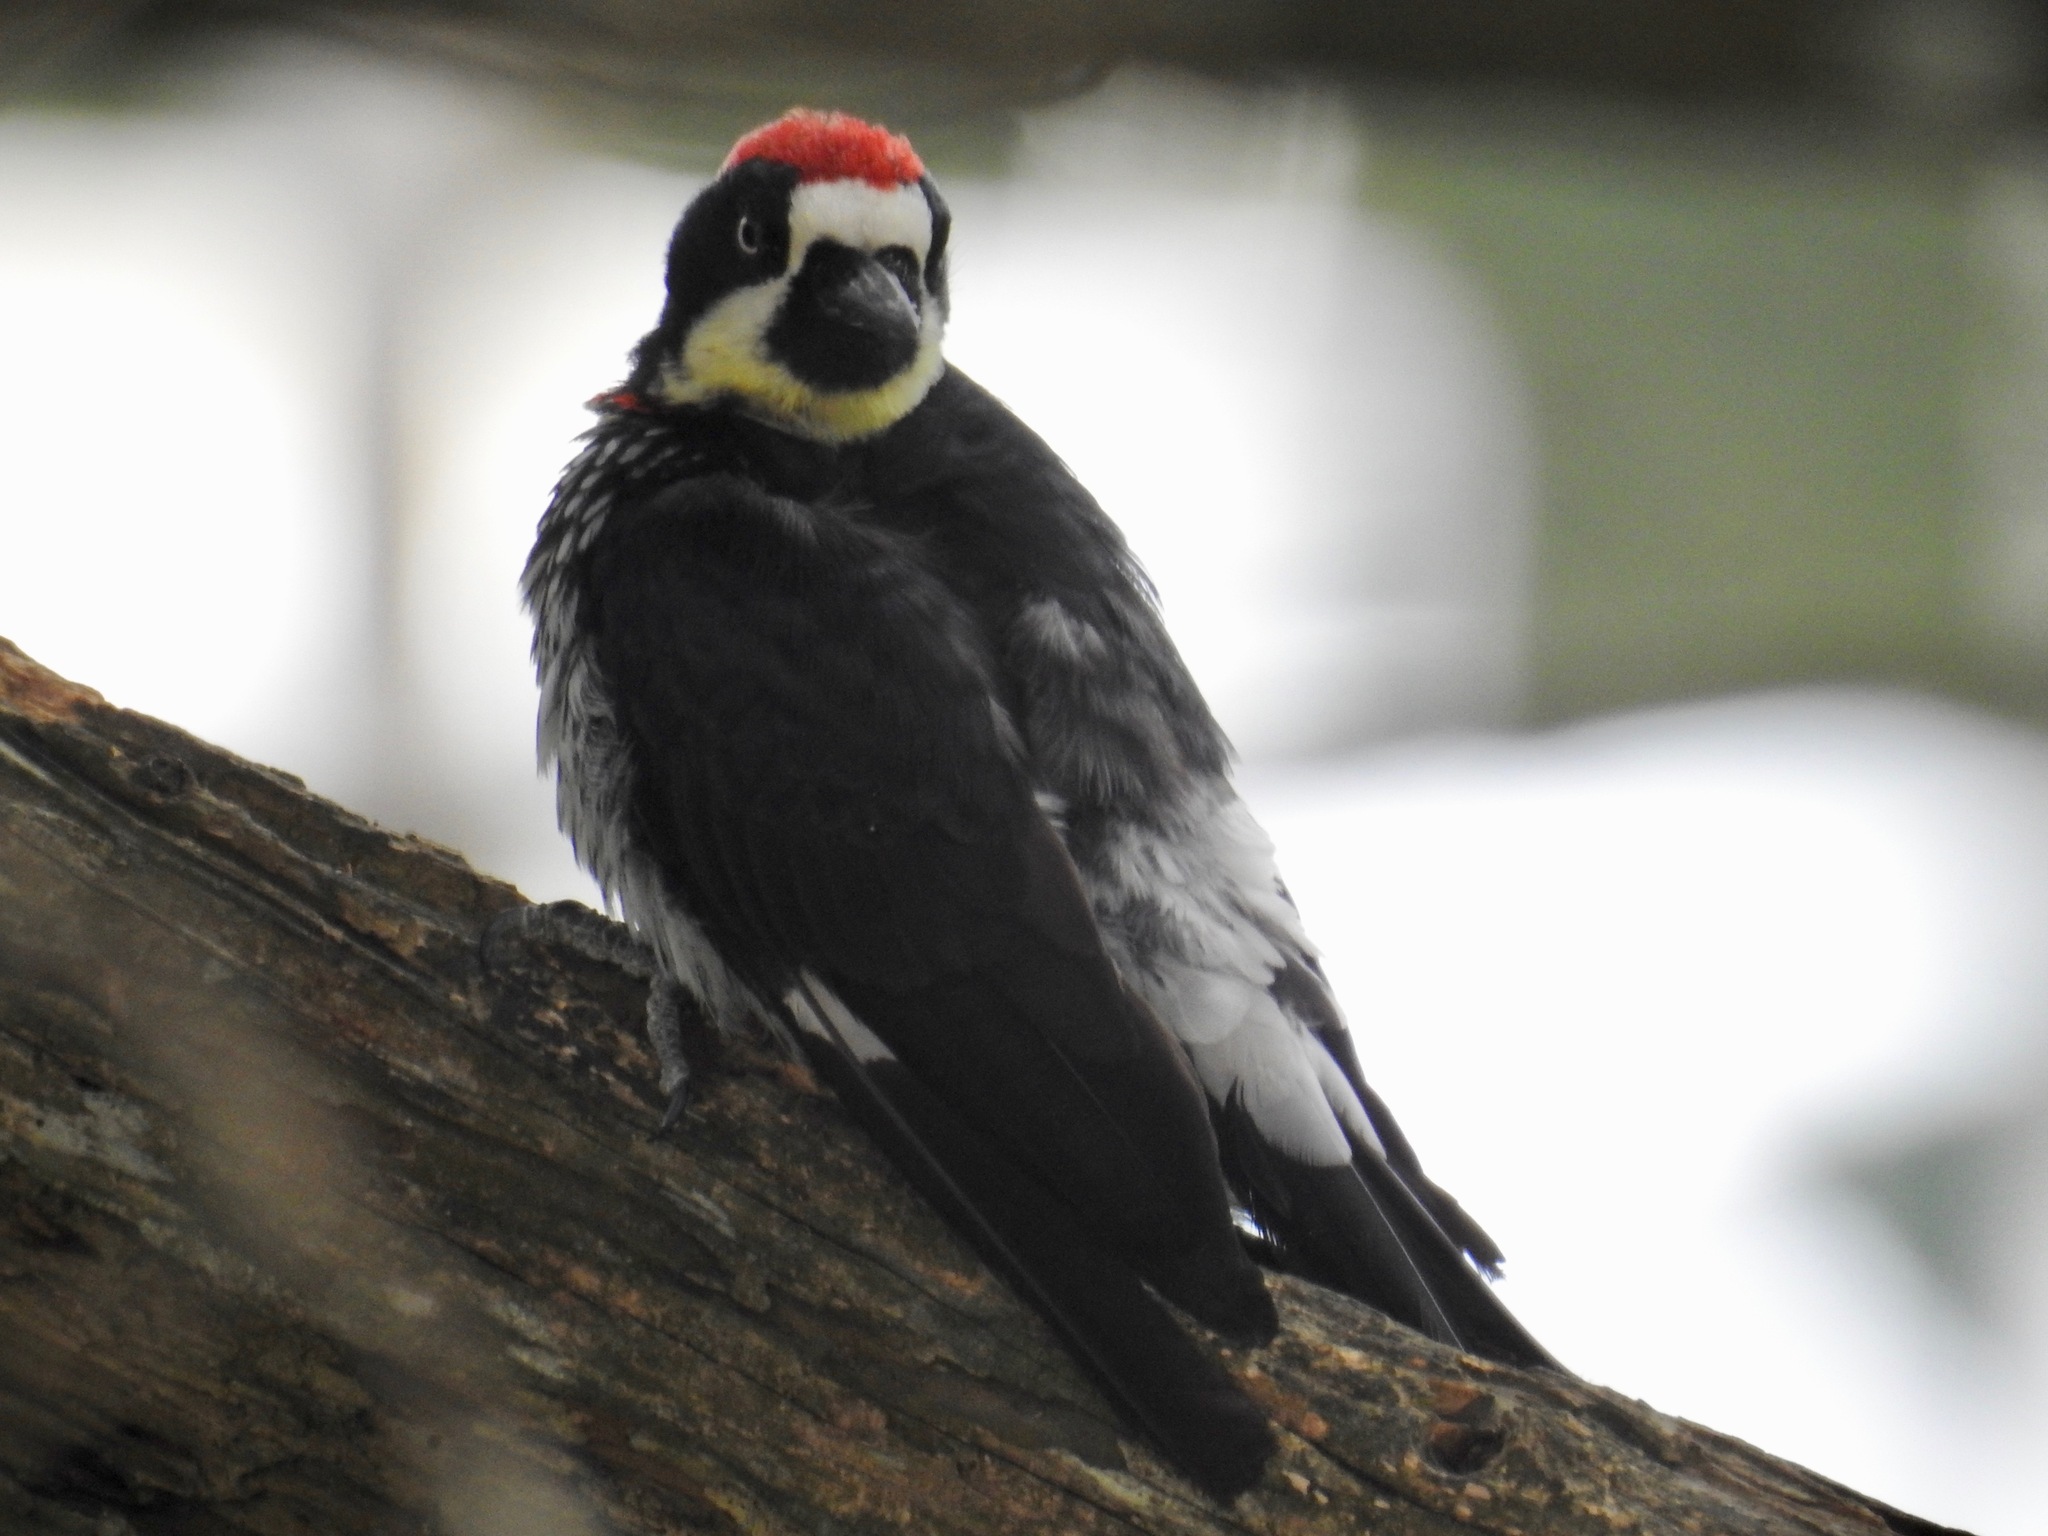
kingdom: Animalia
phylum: Chordata
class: Aves
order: Piciformes
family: Picidae
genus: Melanerpes
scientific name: Melanerpes formicivorus
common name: Acorn woodpecker
